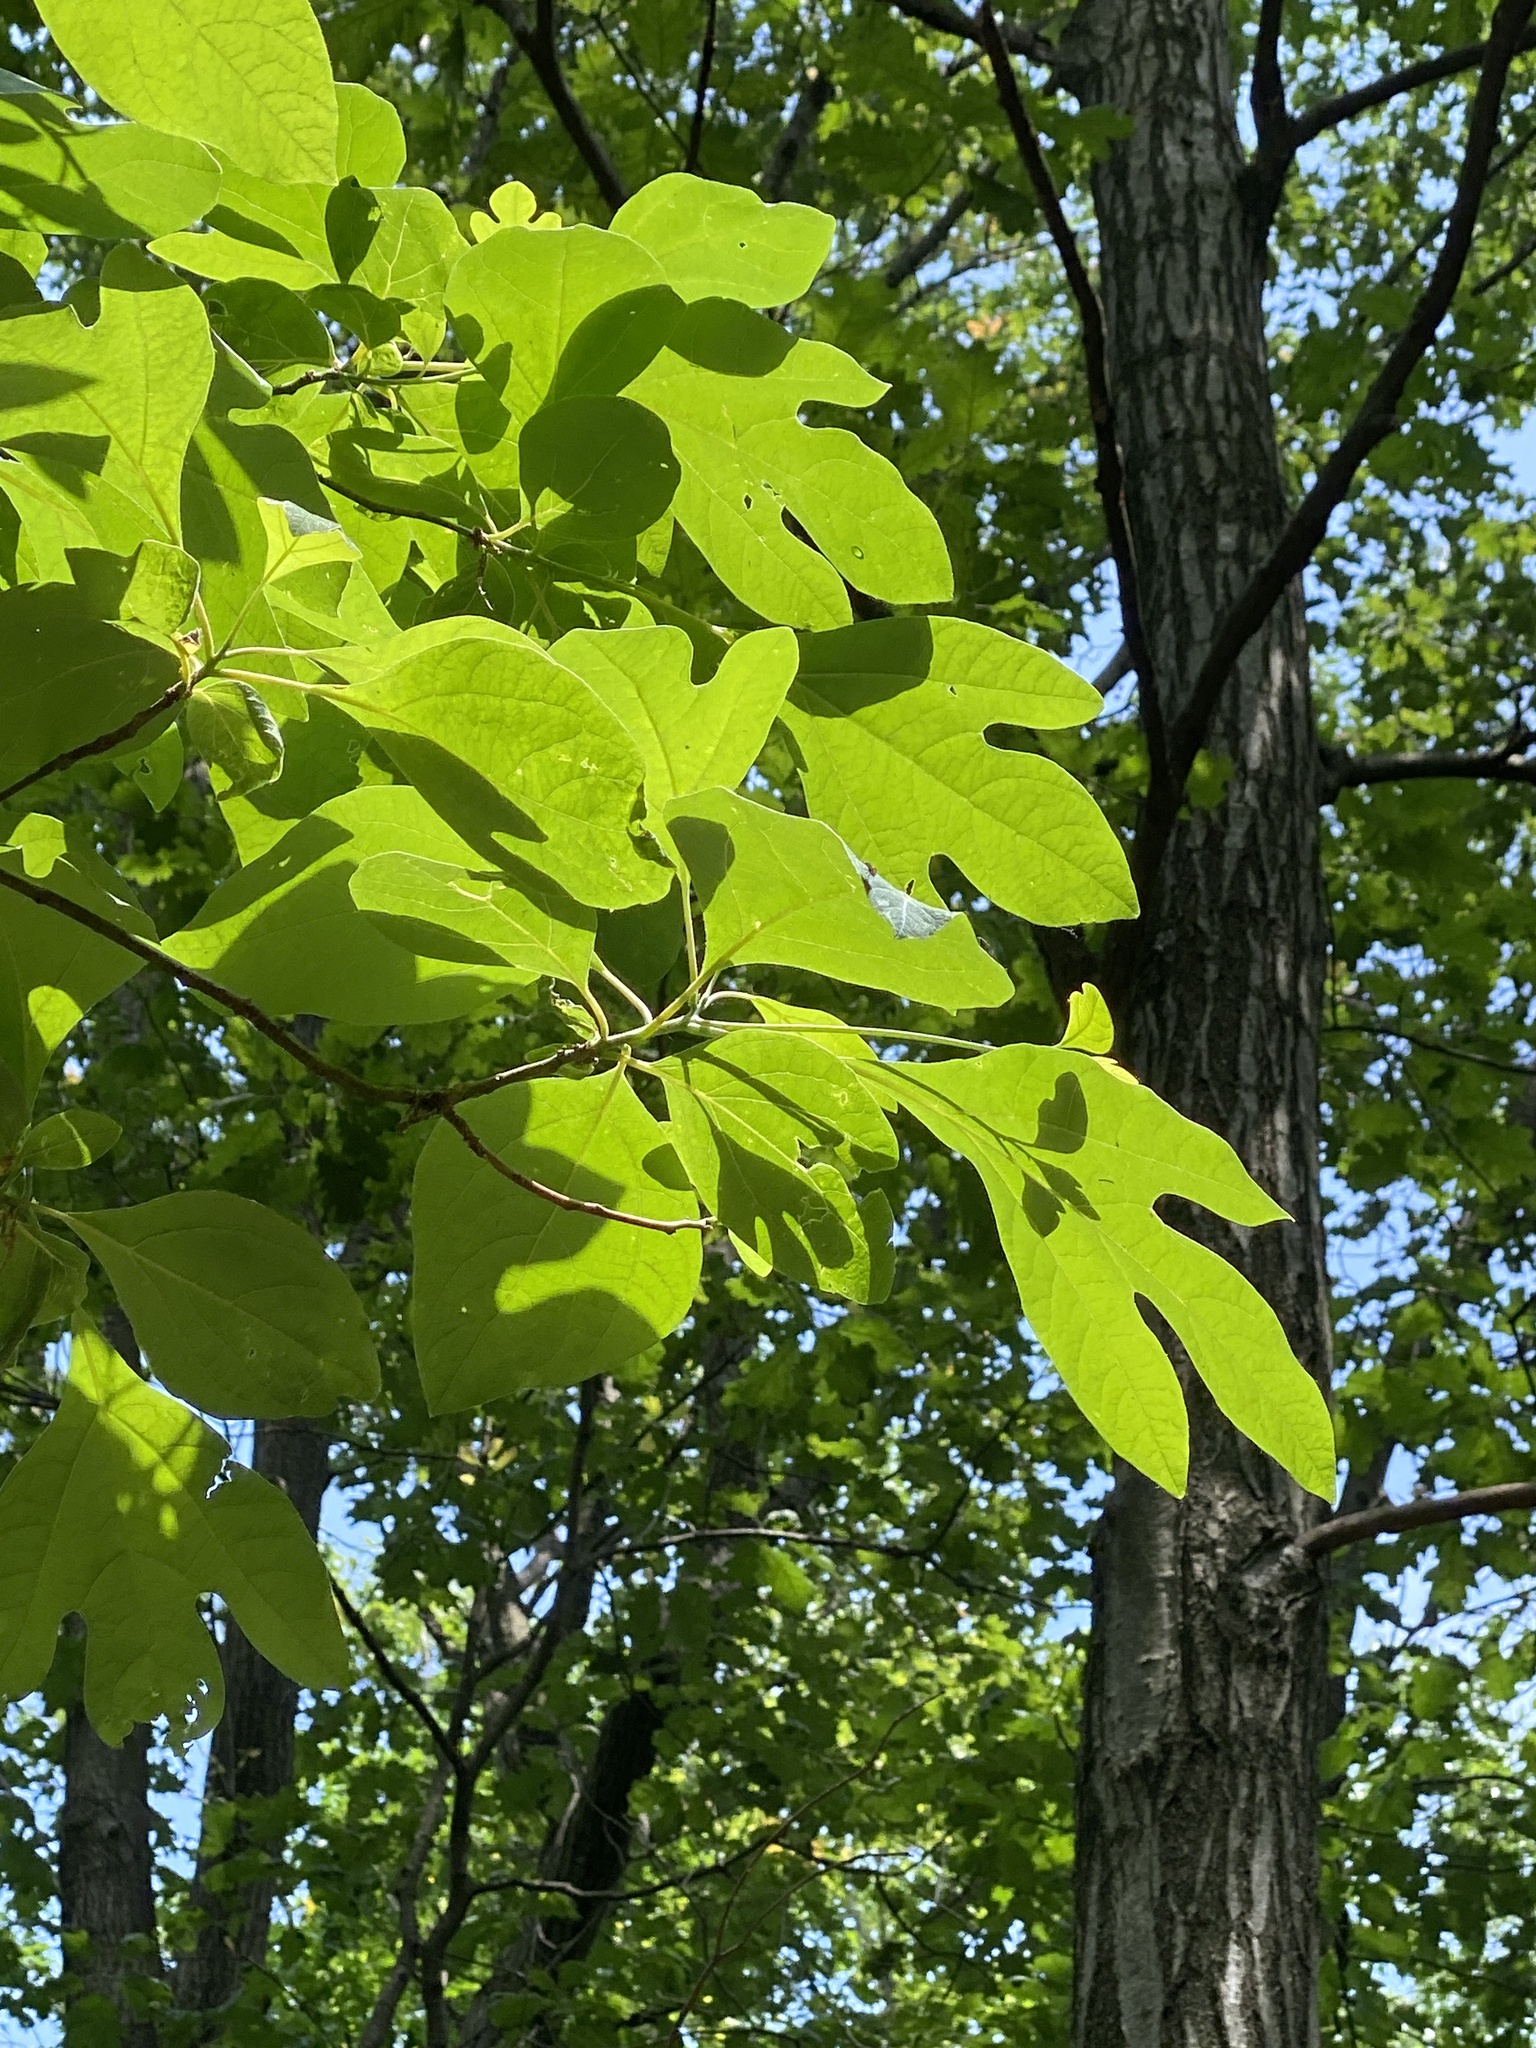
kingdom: Plantae
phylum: Tracheophyta
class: Magnoliopsida
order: Laurales
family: Lauraceae
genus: Sassafras
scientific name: Sassafras albidum
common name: Sassafras
